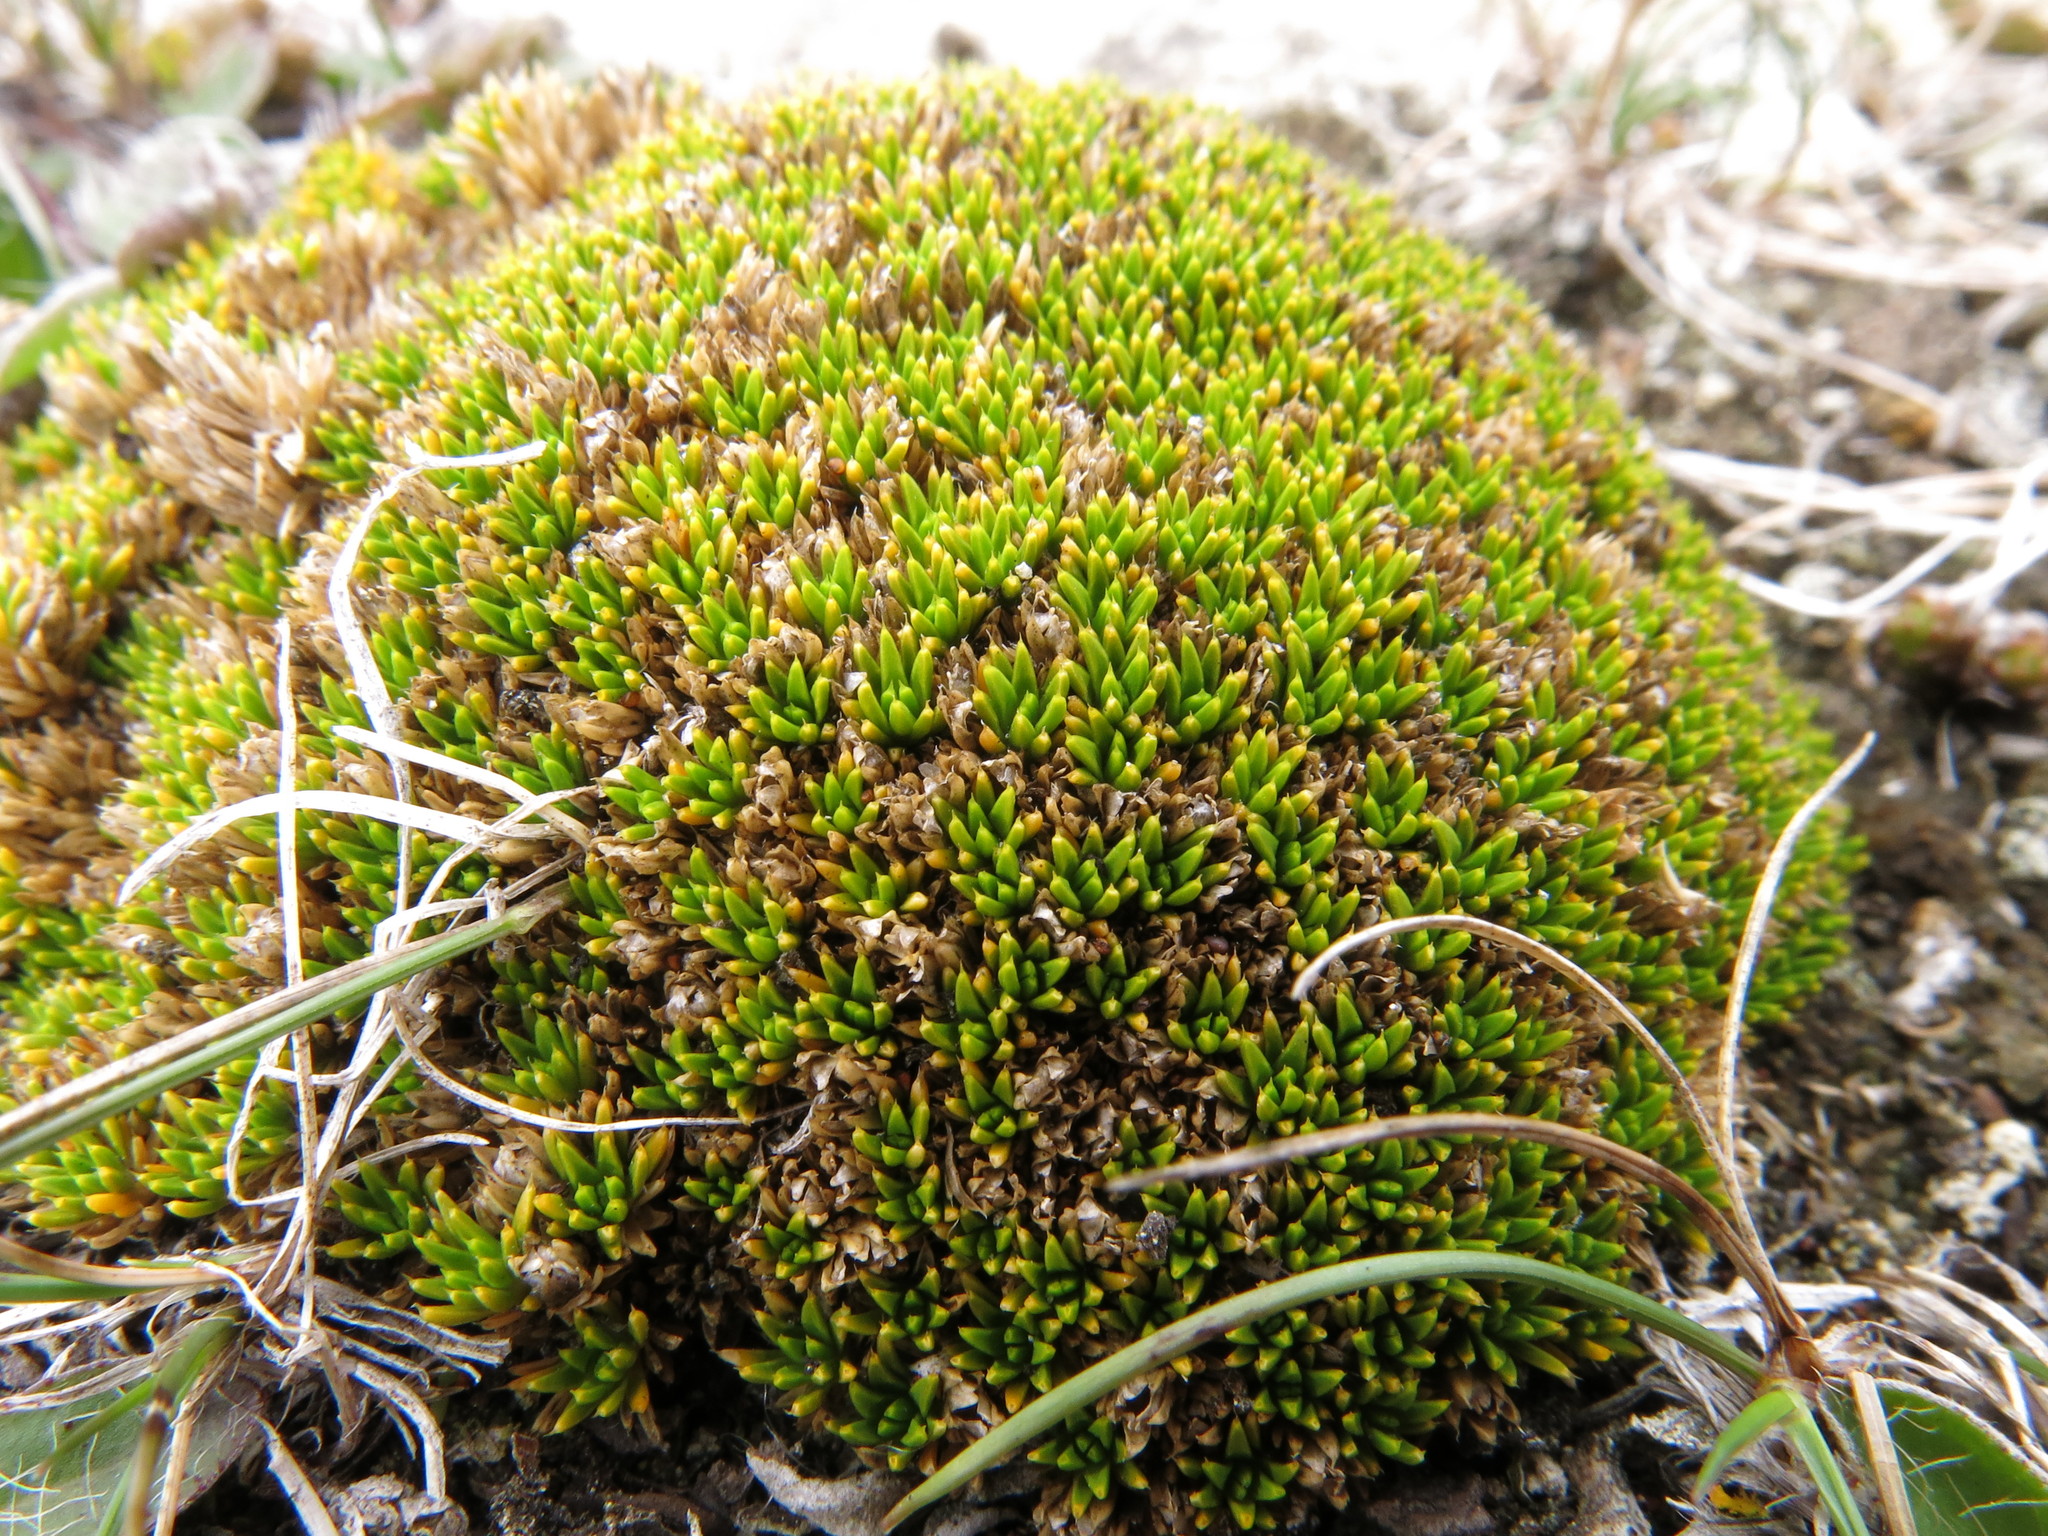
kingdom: Plantae
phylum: Tracheophyta
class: Magnoliopsida
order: Caryophyllales
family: Caryophyllaceae
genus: Colobanthus
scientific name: Colobanthus brevisepalus
